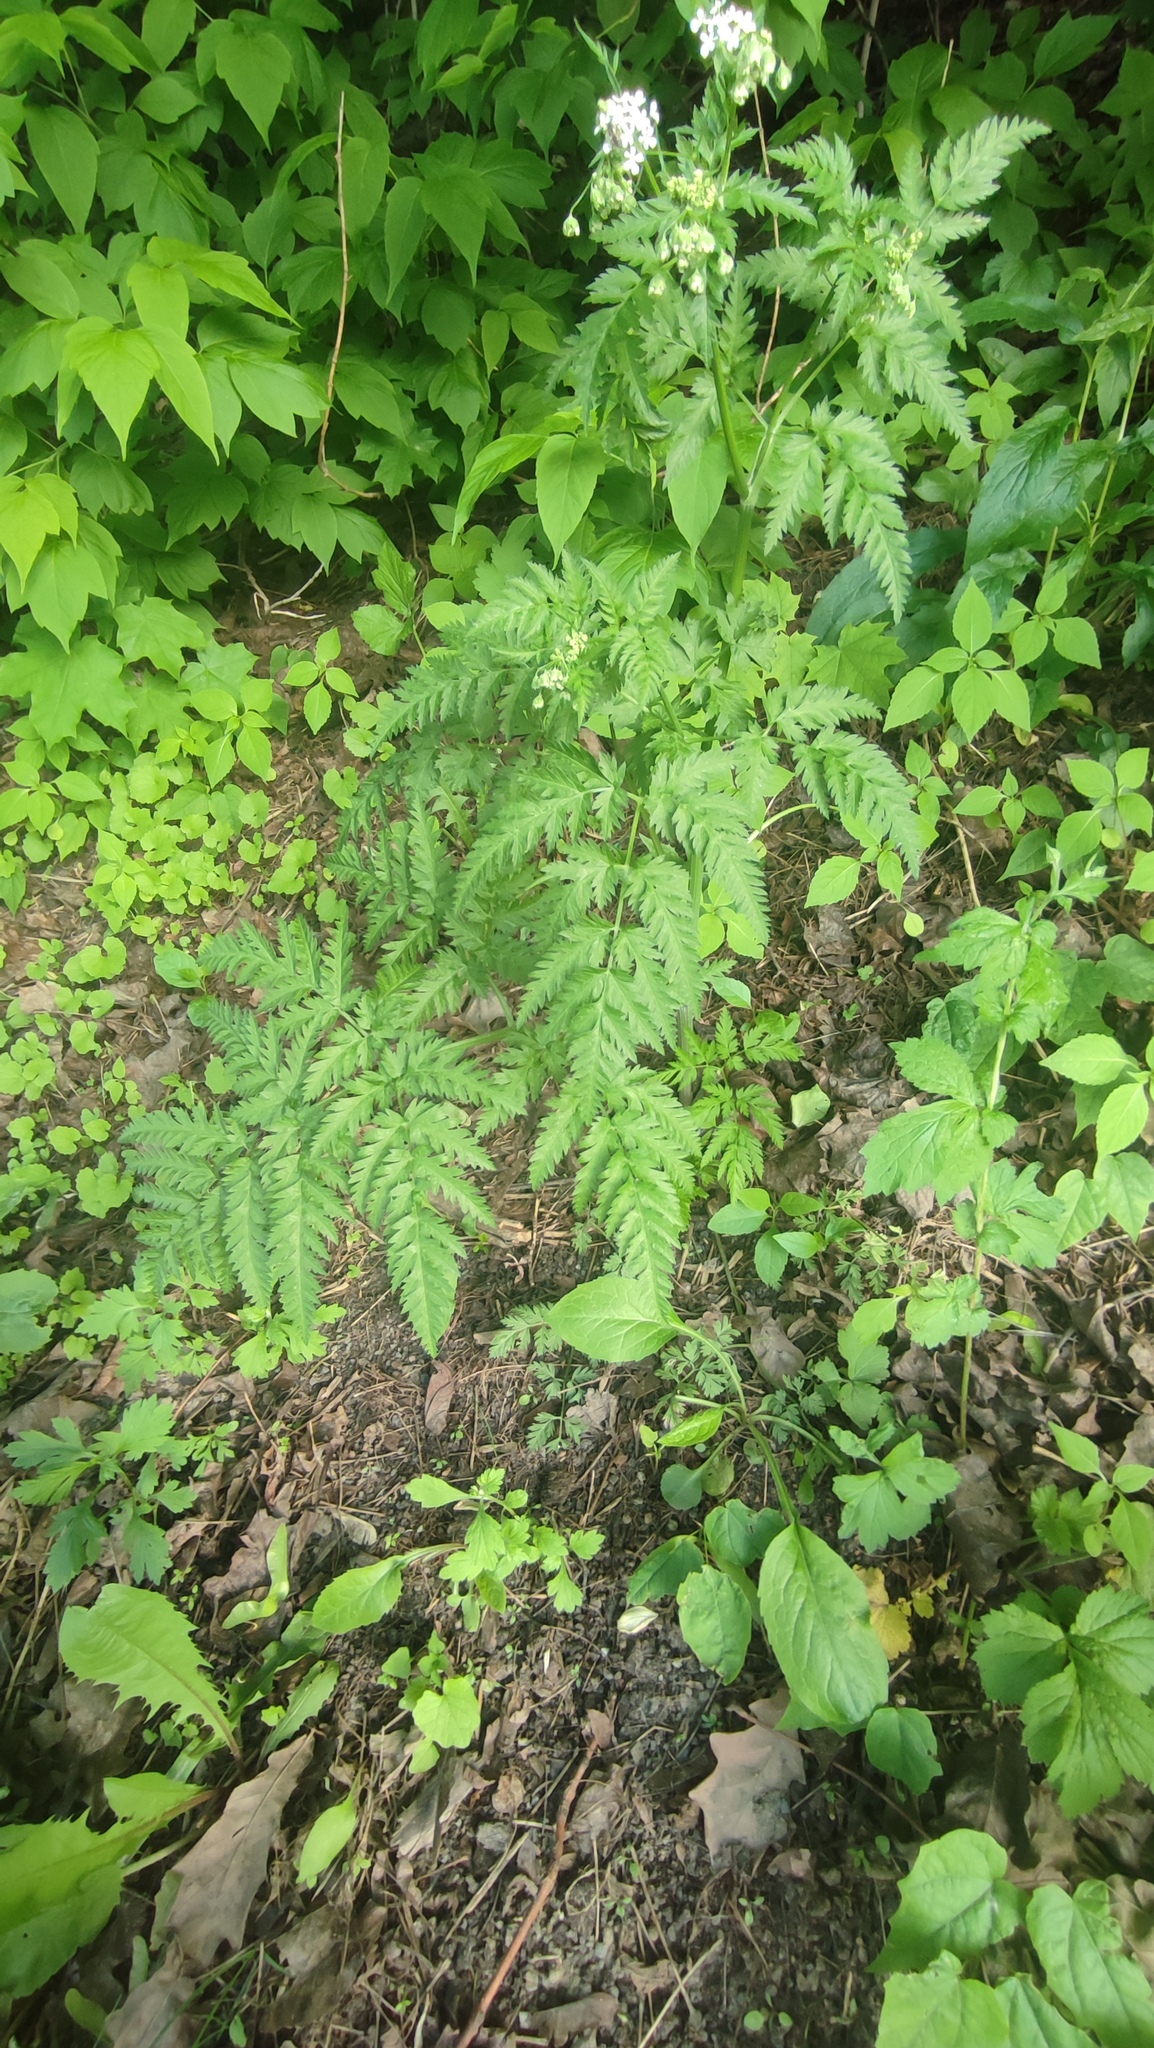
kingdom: Plantae
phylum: Tracheophyta
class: Magnoliopsida
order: Apiales
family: Apiaceae
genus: Anthriscus
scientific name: Anthriscus sylvestris
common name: Cow parsley
